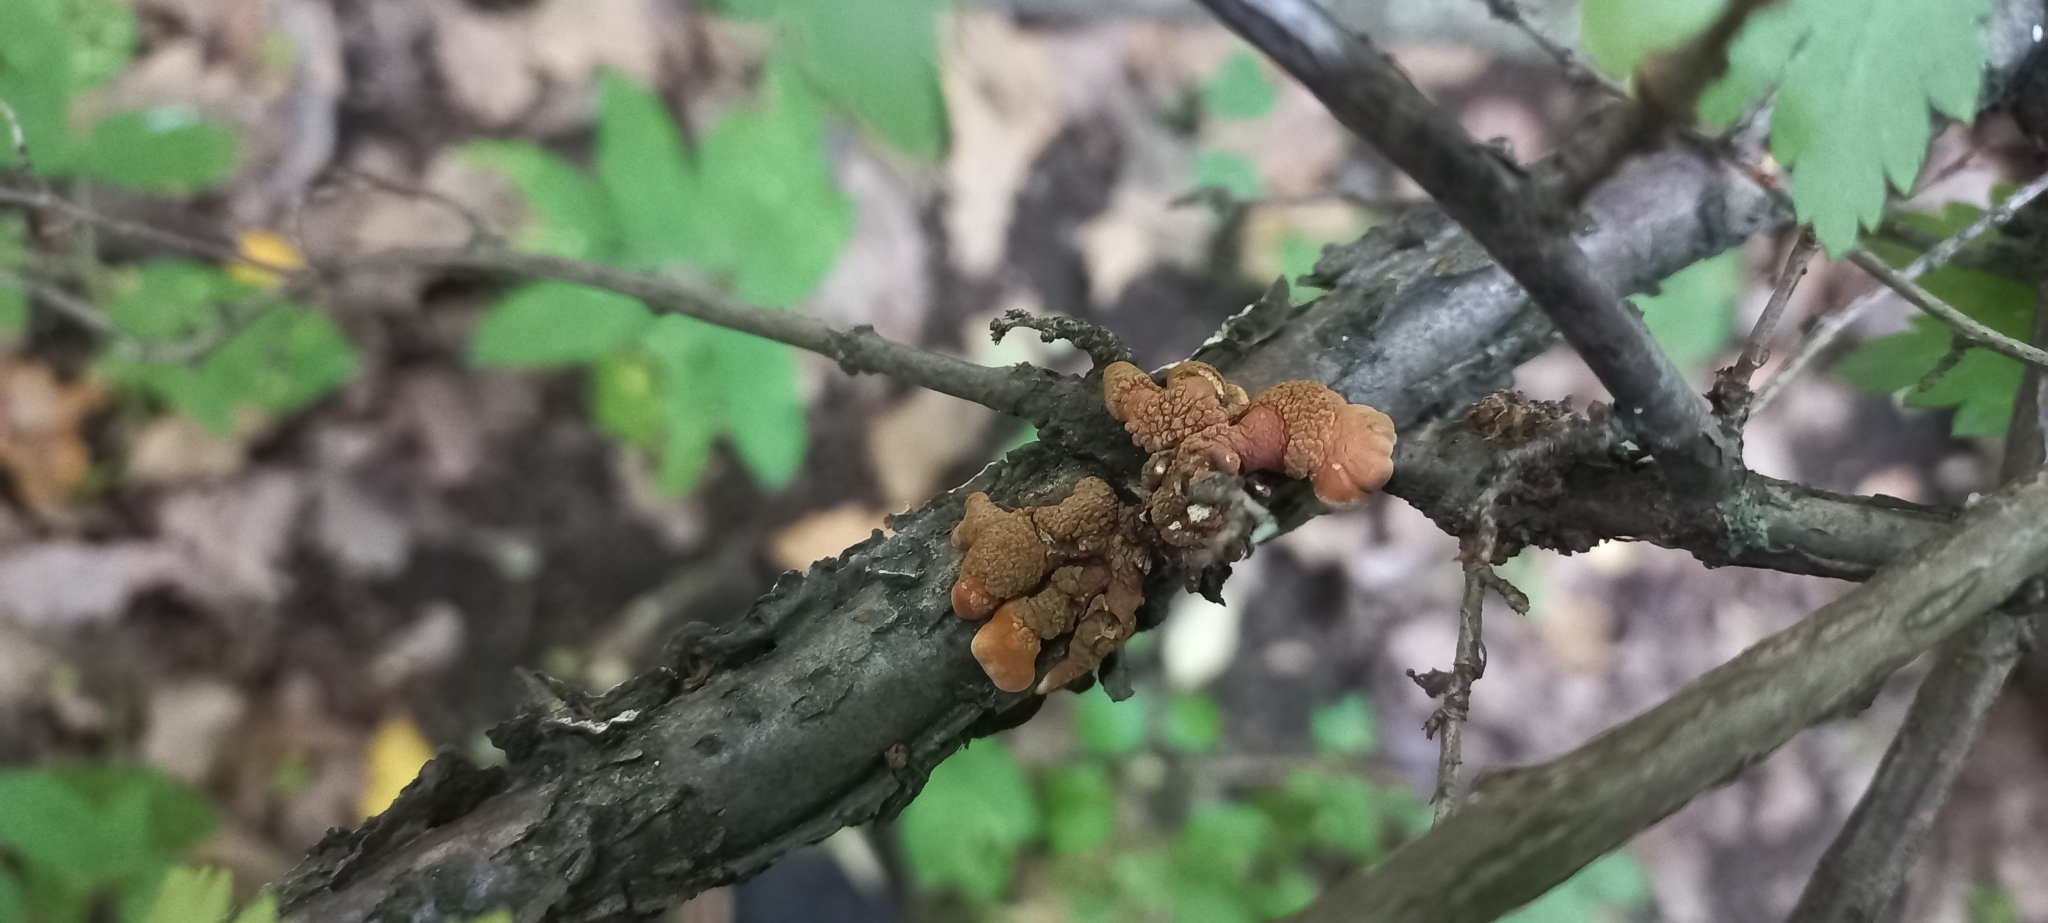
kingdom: Fungi
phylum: Ascomycota
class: Sordariomycetes
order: Hypocreales
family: Hypocreaceae
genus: Hypocreopsis
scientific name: Hypocreopsis lichenoides
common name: Willow gloves
